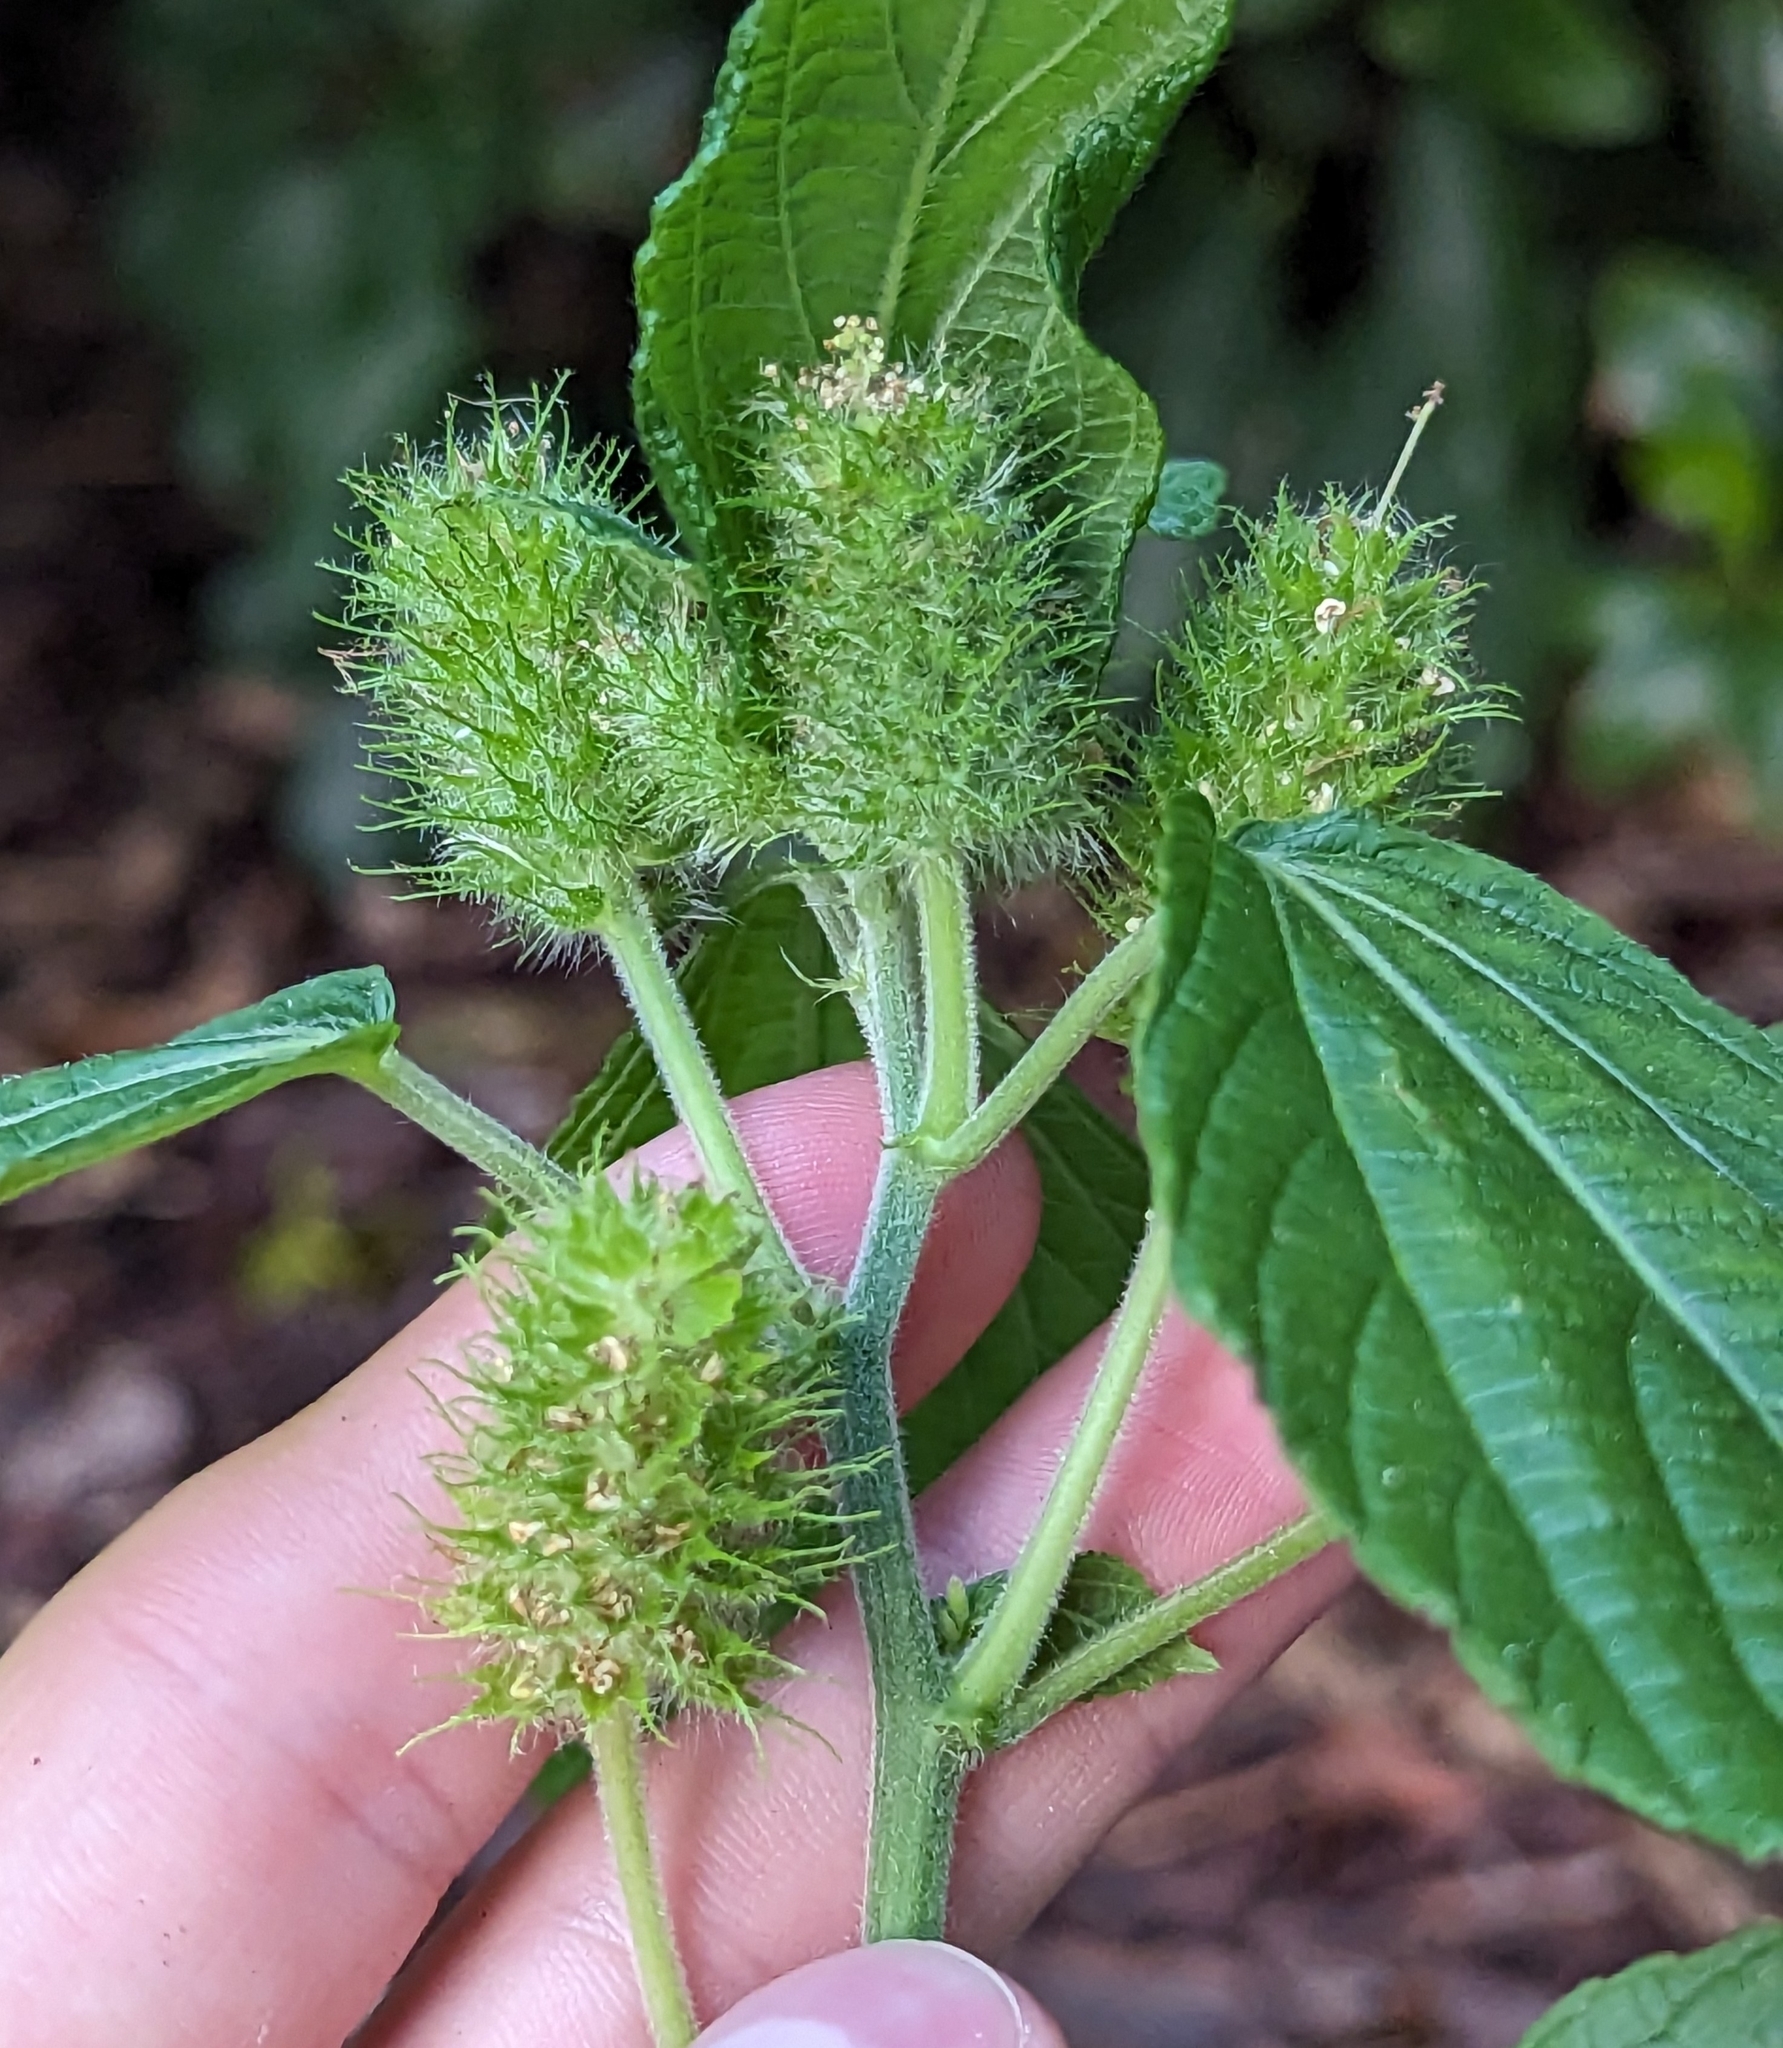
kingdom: Plantae
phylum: Tracheophyta
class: Magnoliopsida
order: Malpighiales
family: Euphorbiaceae
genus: Acalypha
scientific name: Acalypha arvensis
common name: Field copperleaf
